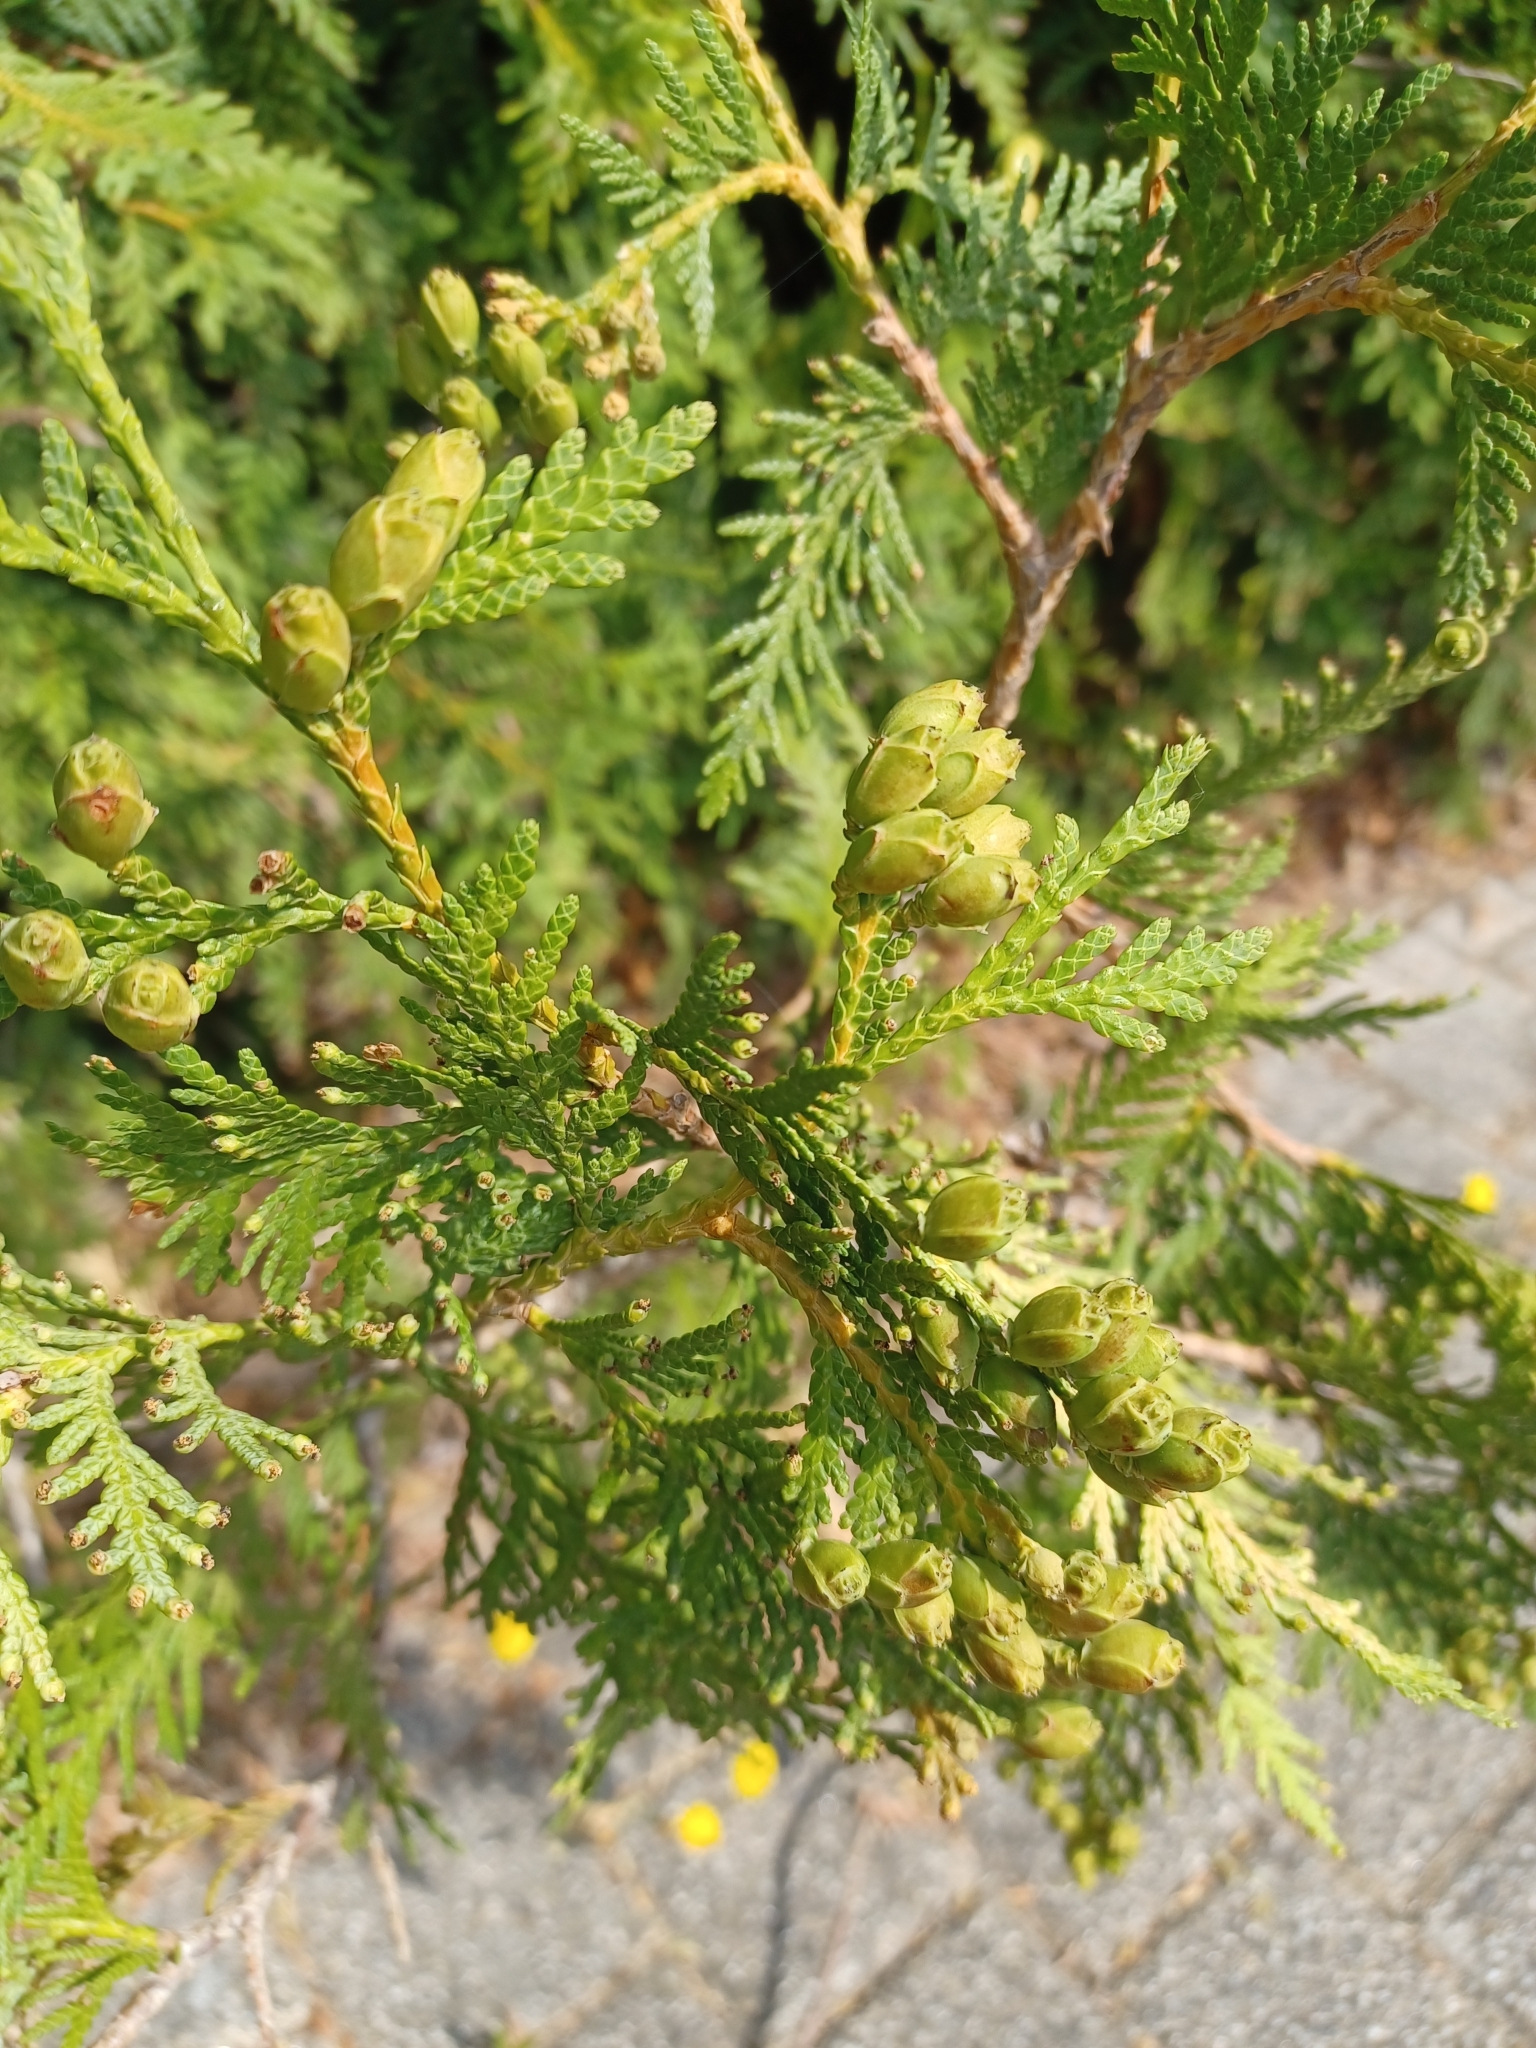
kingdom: Plantae
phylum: Tracheophyta
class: Pinopsida
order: Pinales
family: Cupressaceae
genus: Thuja
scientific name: Thuja occidentalis
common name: Northern white-cedar
